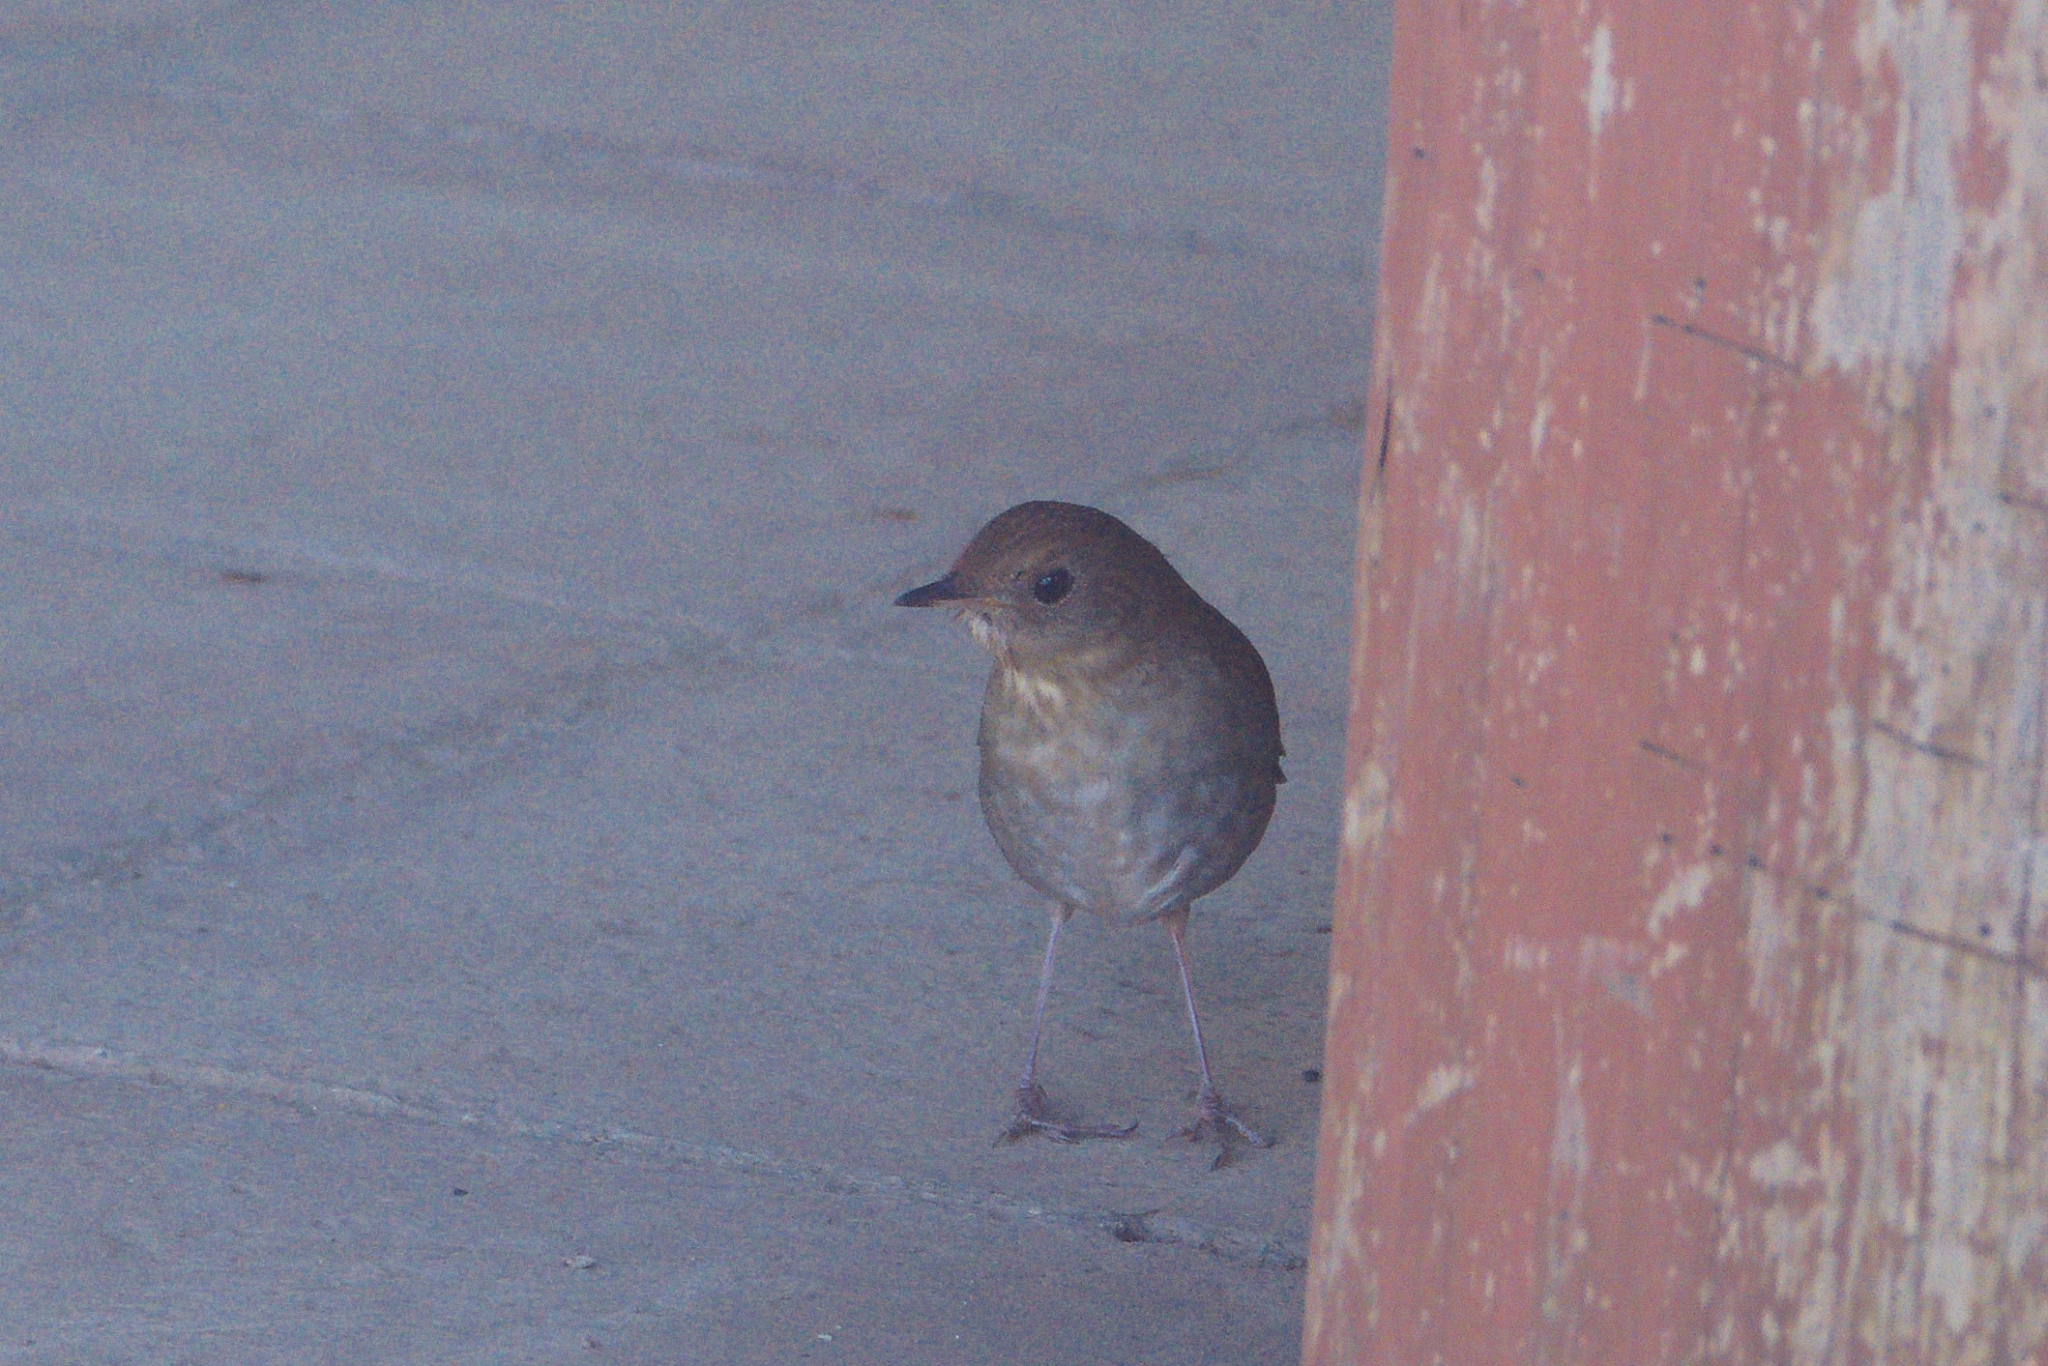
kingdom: Animalia
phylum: Chordata
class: Aves
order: Passeriformes
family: Turdidae
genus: Catharus
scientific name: Catharus occidentalis
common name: Russet nightingale-thrush
